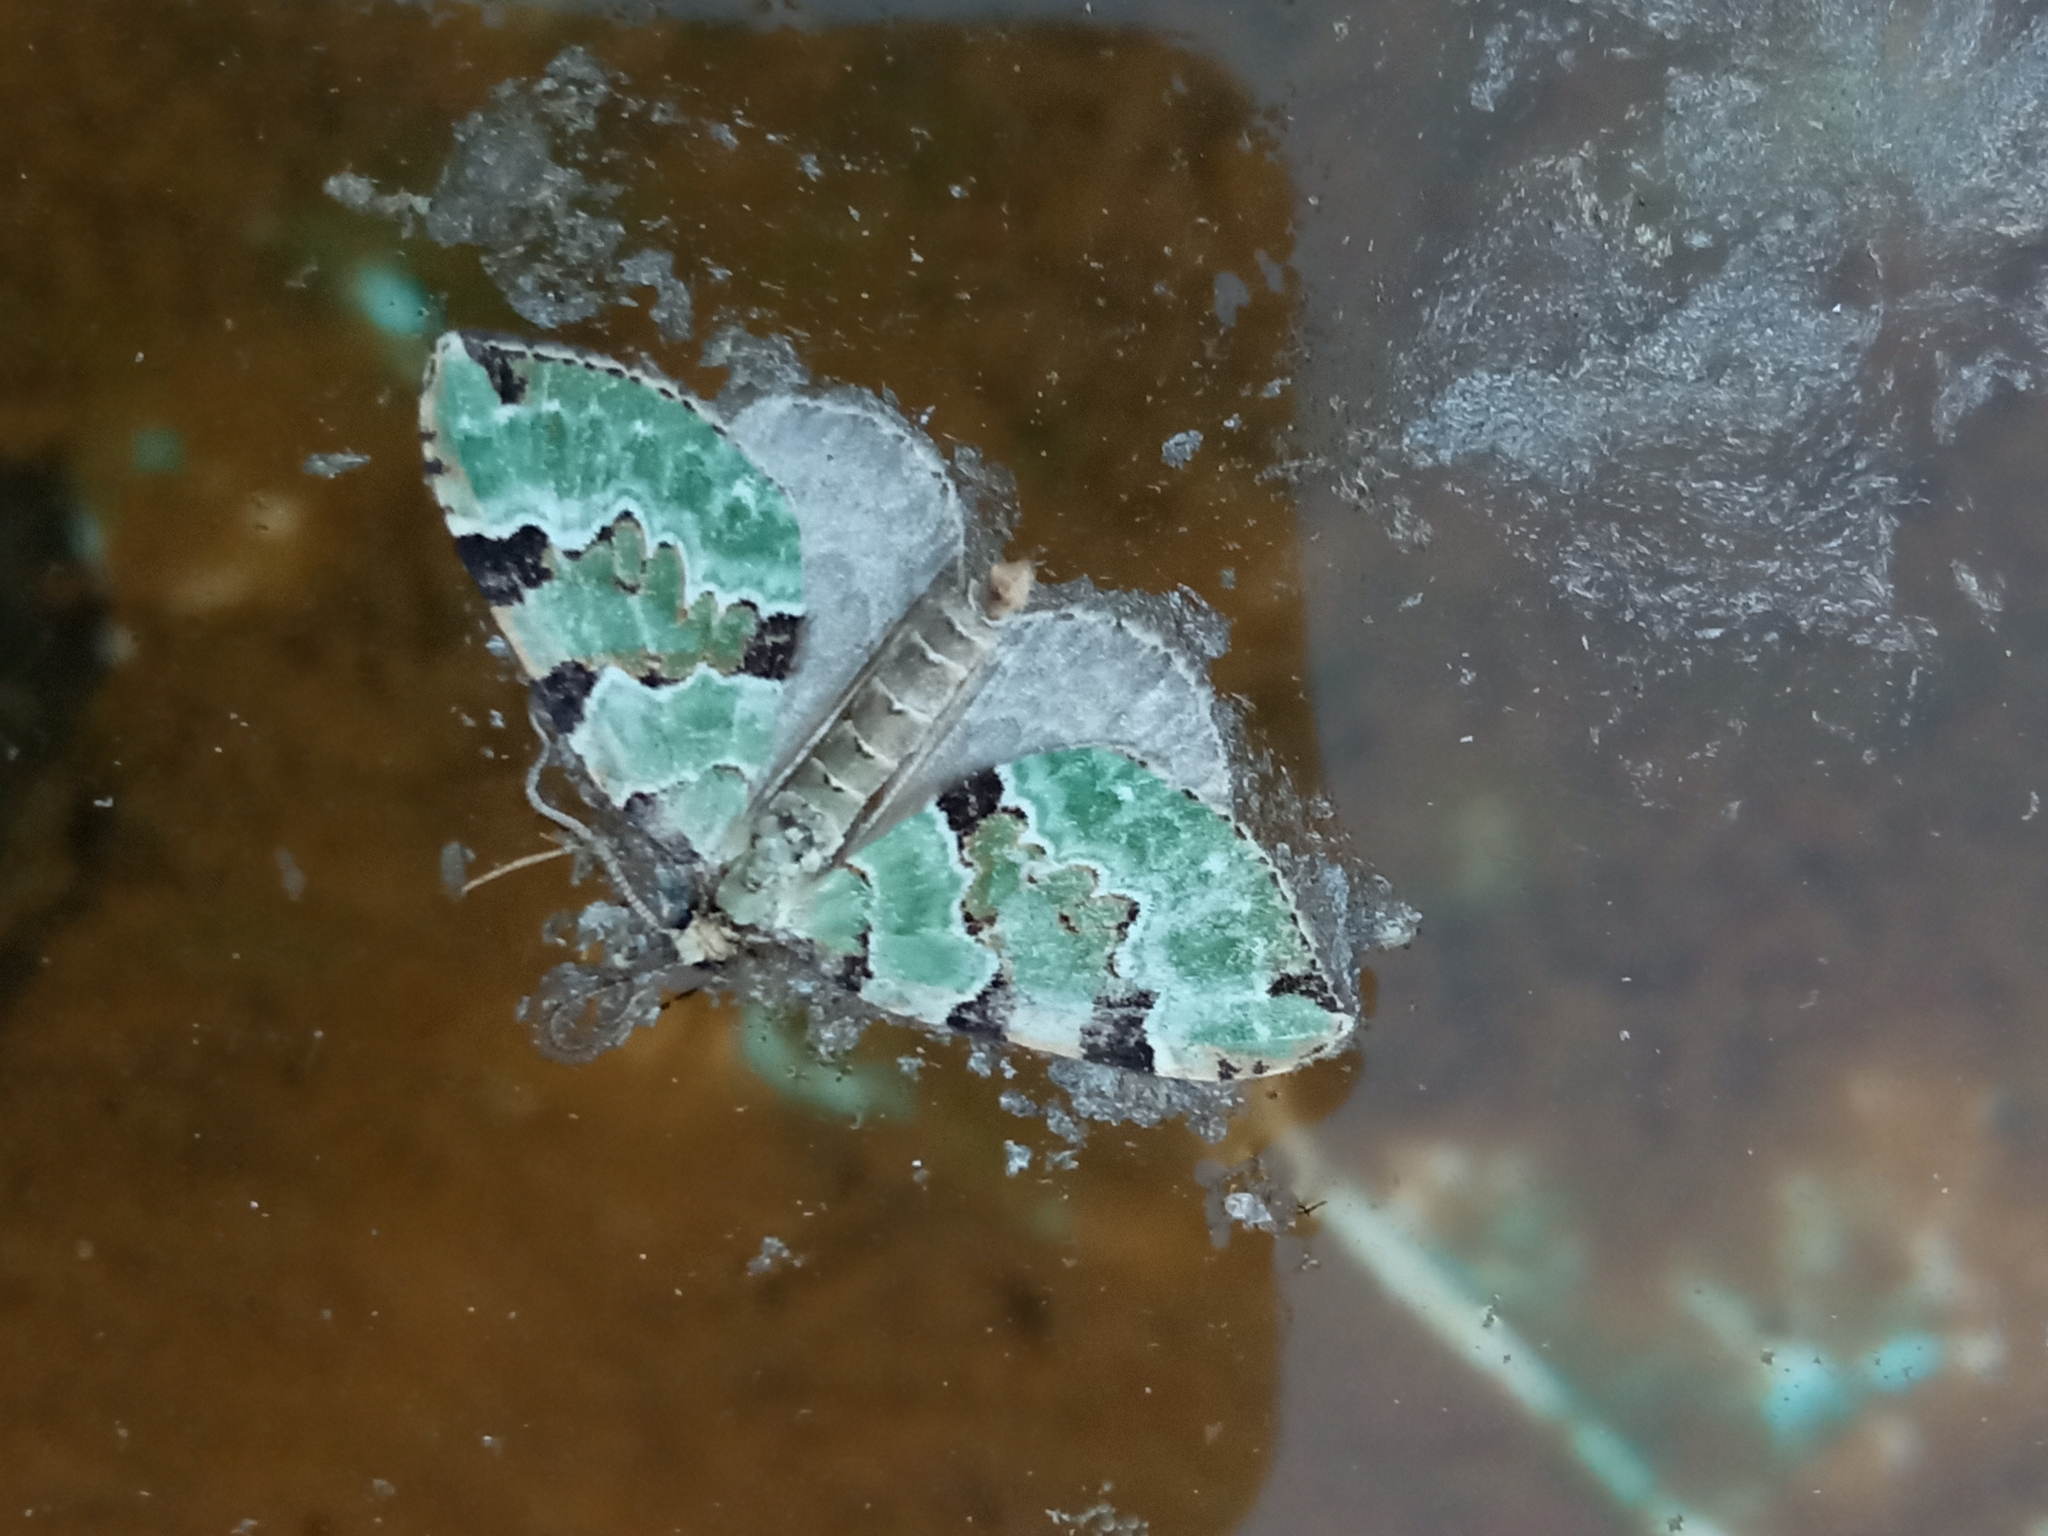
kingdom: Animalia
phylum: Arthropoda
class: Insecta
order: Lepidoptera
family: Geometridae
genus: Colostygia
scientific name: Colostygia pectinataria
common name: Green carpet
